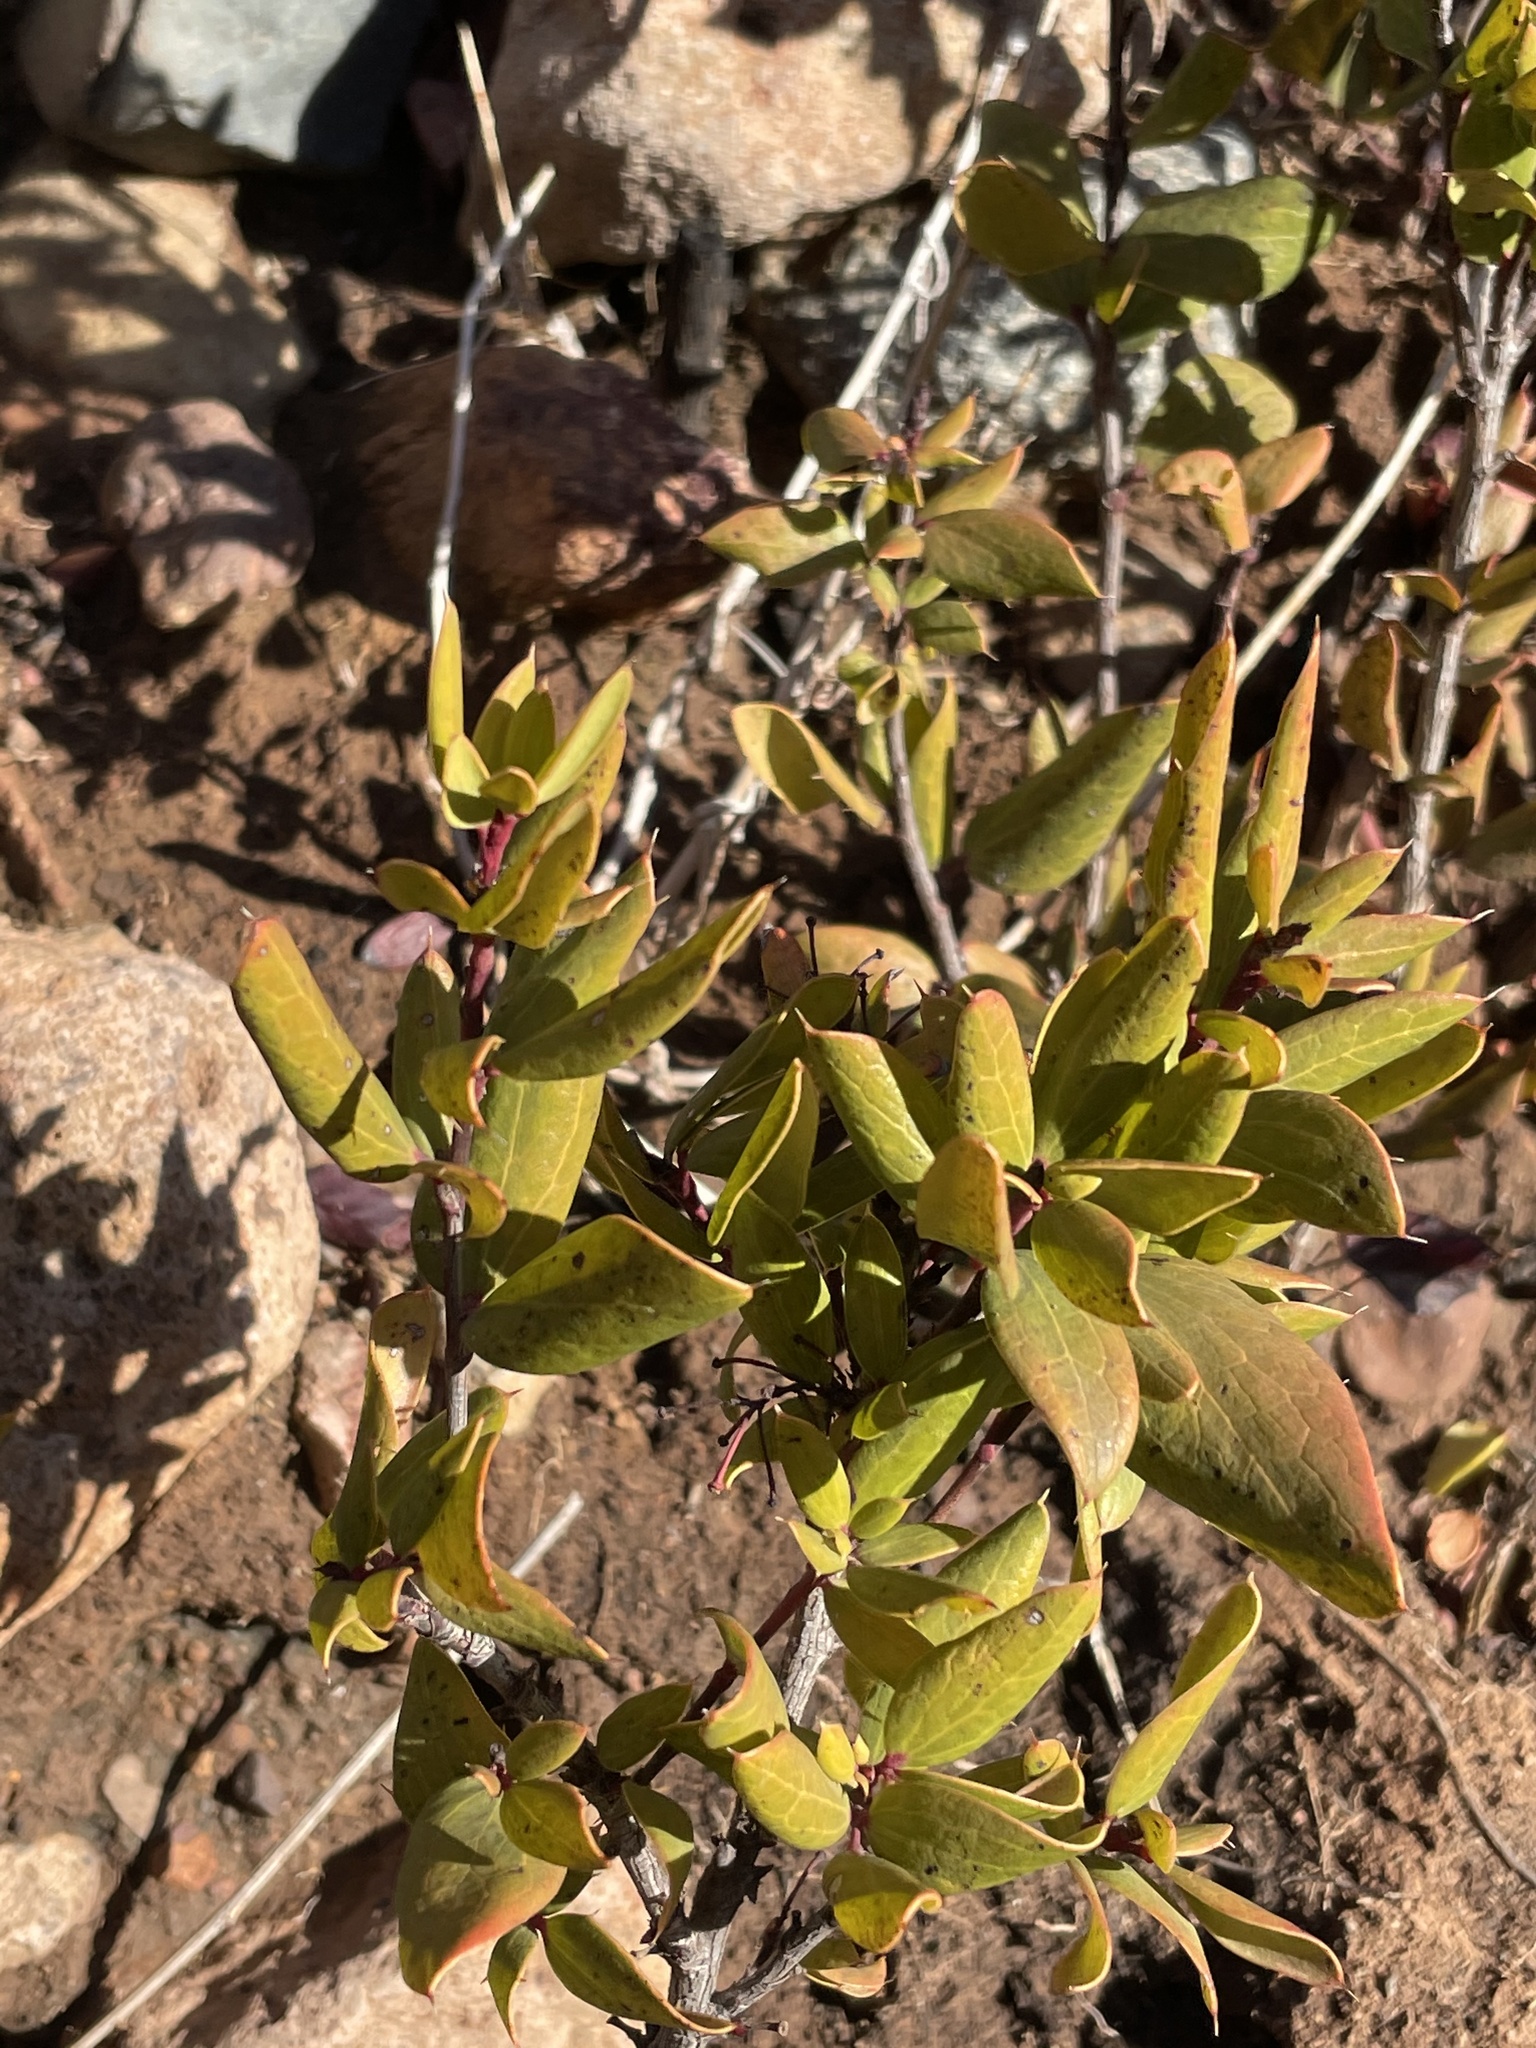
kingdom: Plantae
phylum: Tracheophyta
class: Magnoliopsida
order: Ranunculales
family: Berberidaceae
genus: Moranothamnus
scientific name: Moranothamnus claireae
